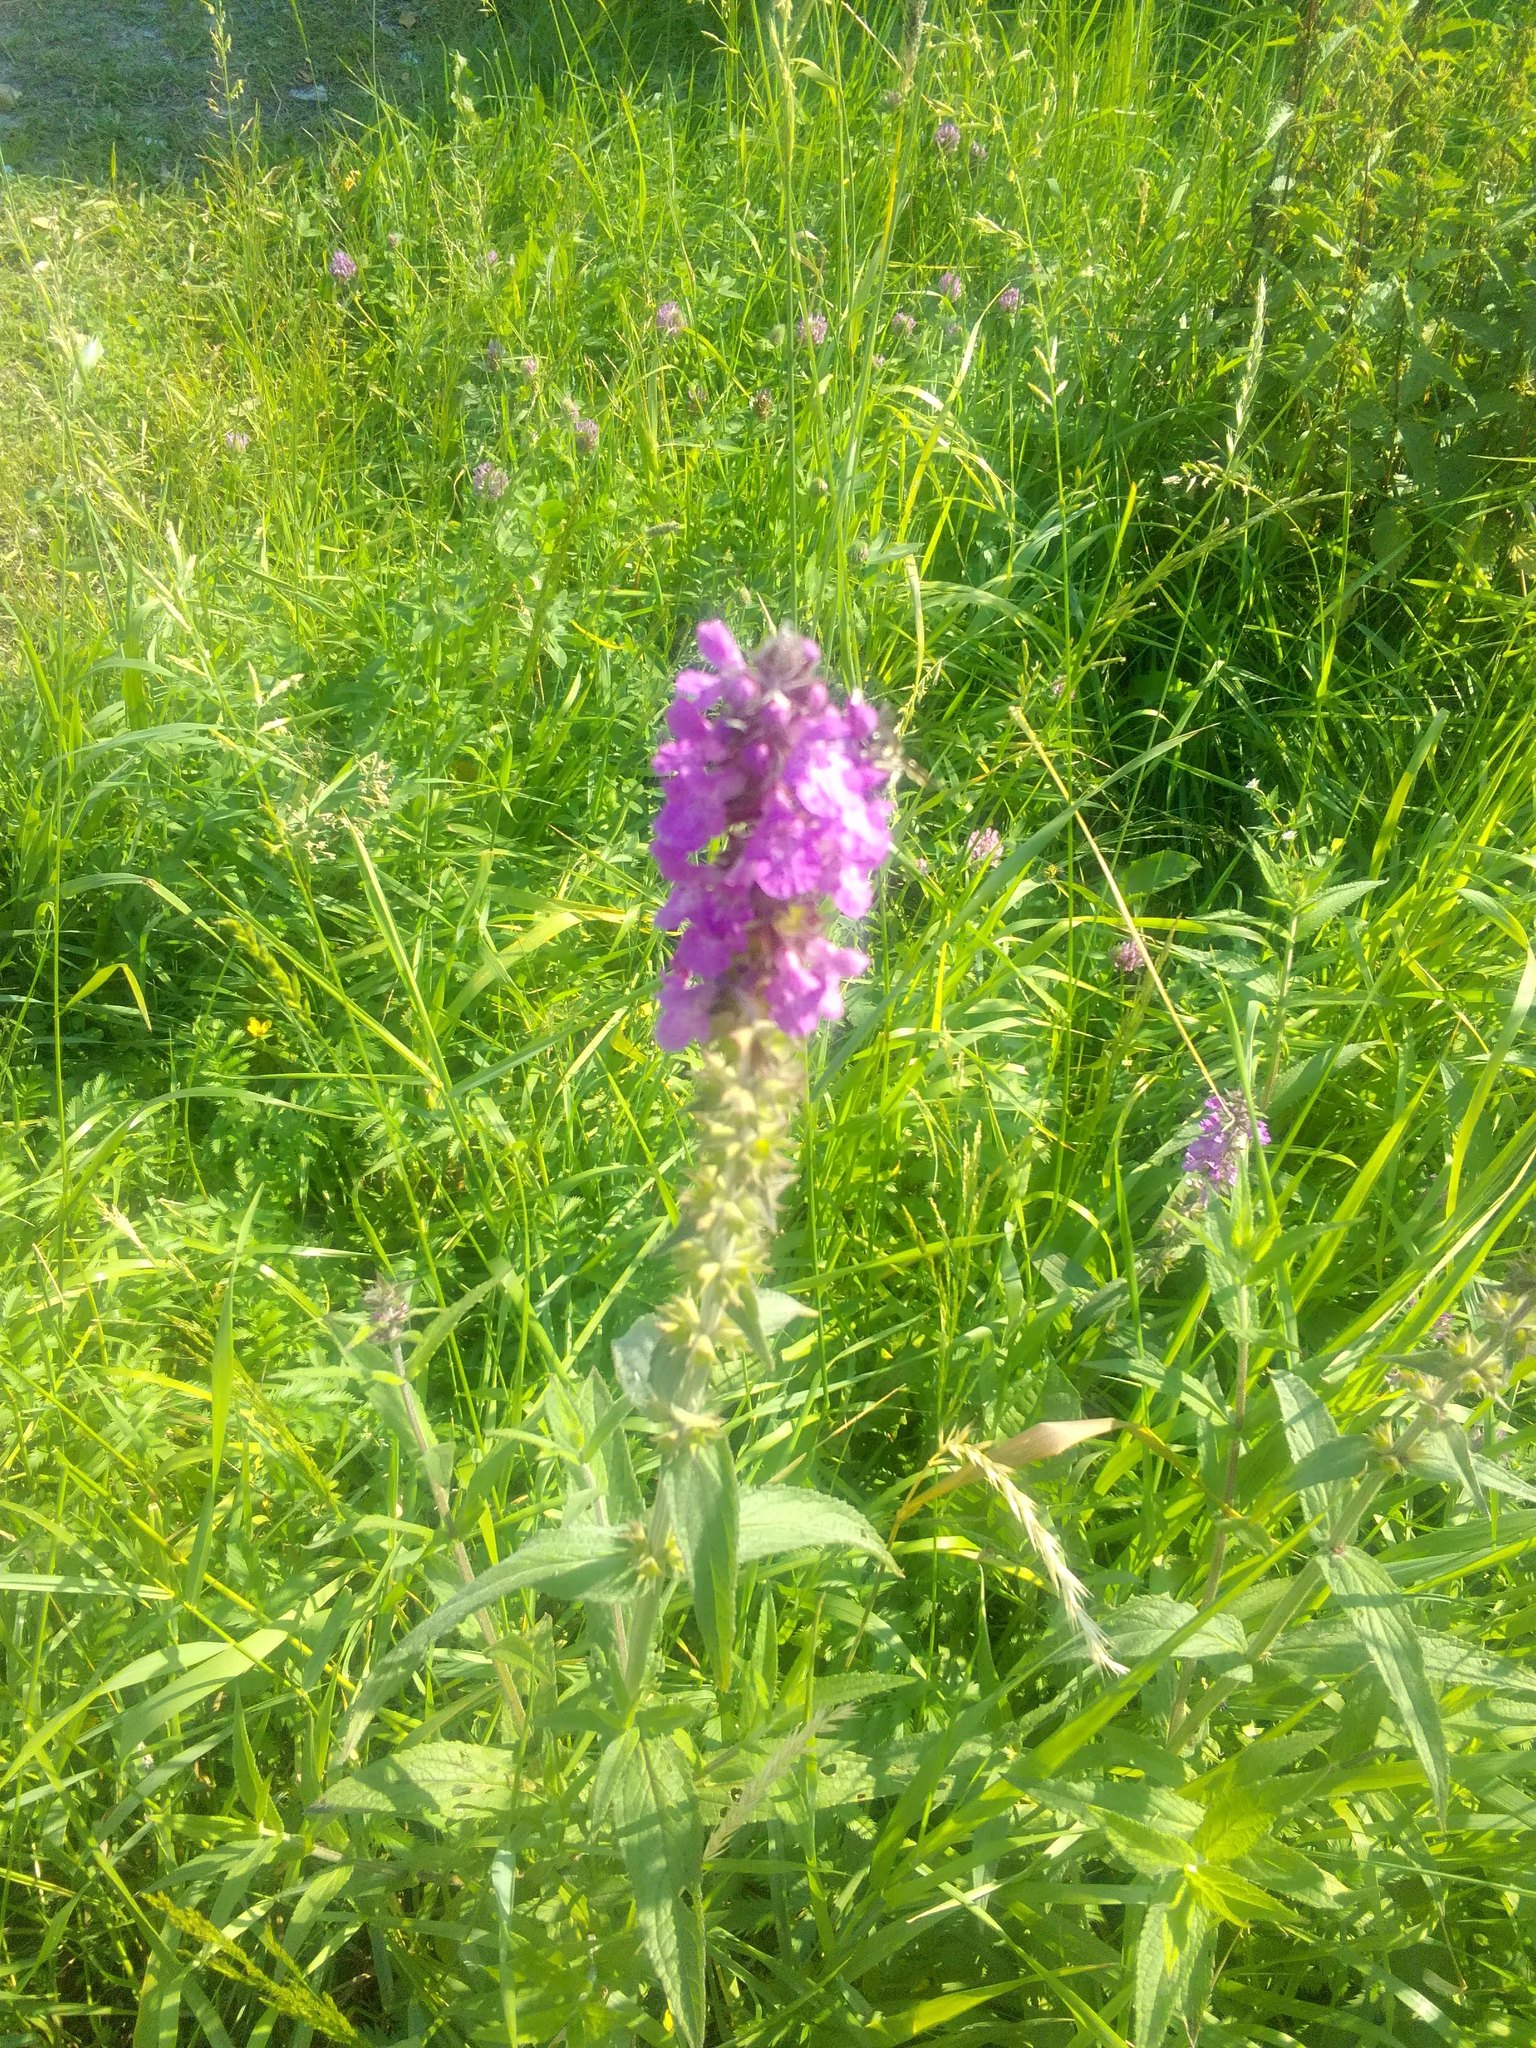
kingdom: Plantae
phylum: Tracheophyta
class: Magnoliopsida
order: Lamiales
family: Lamiaceae
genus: Stachys
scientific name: Stachys palustris
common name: Marsh woundwort
